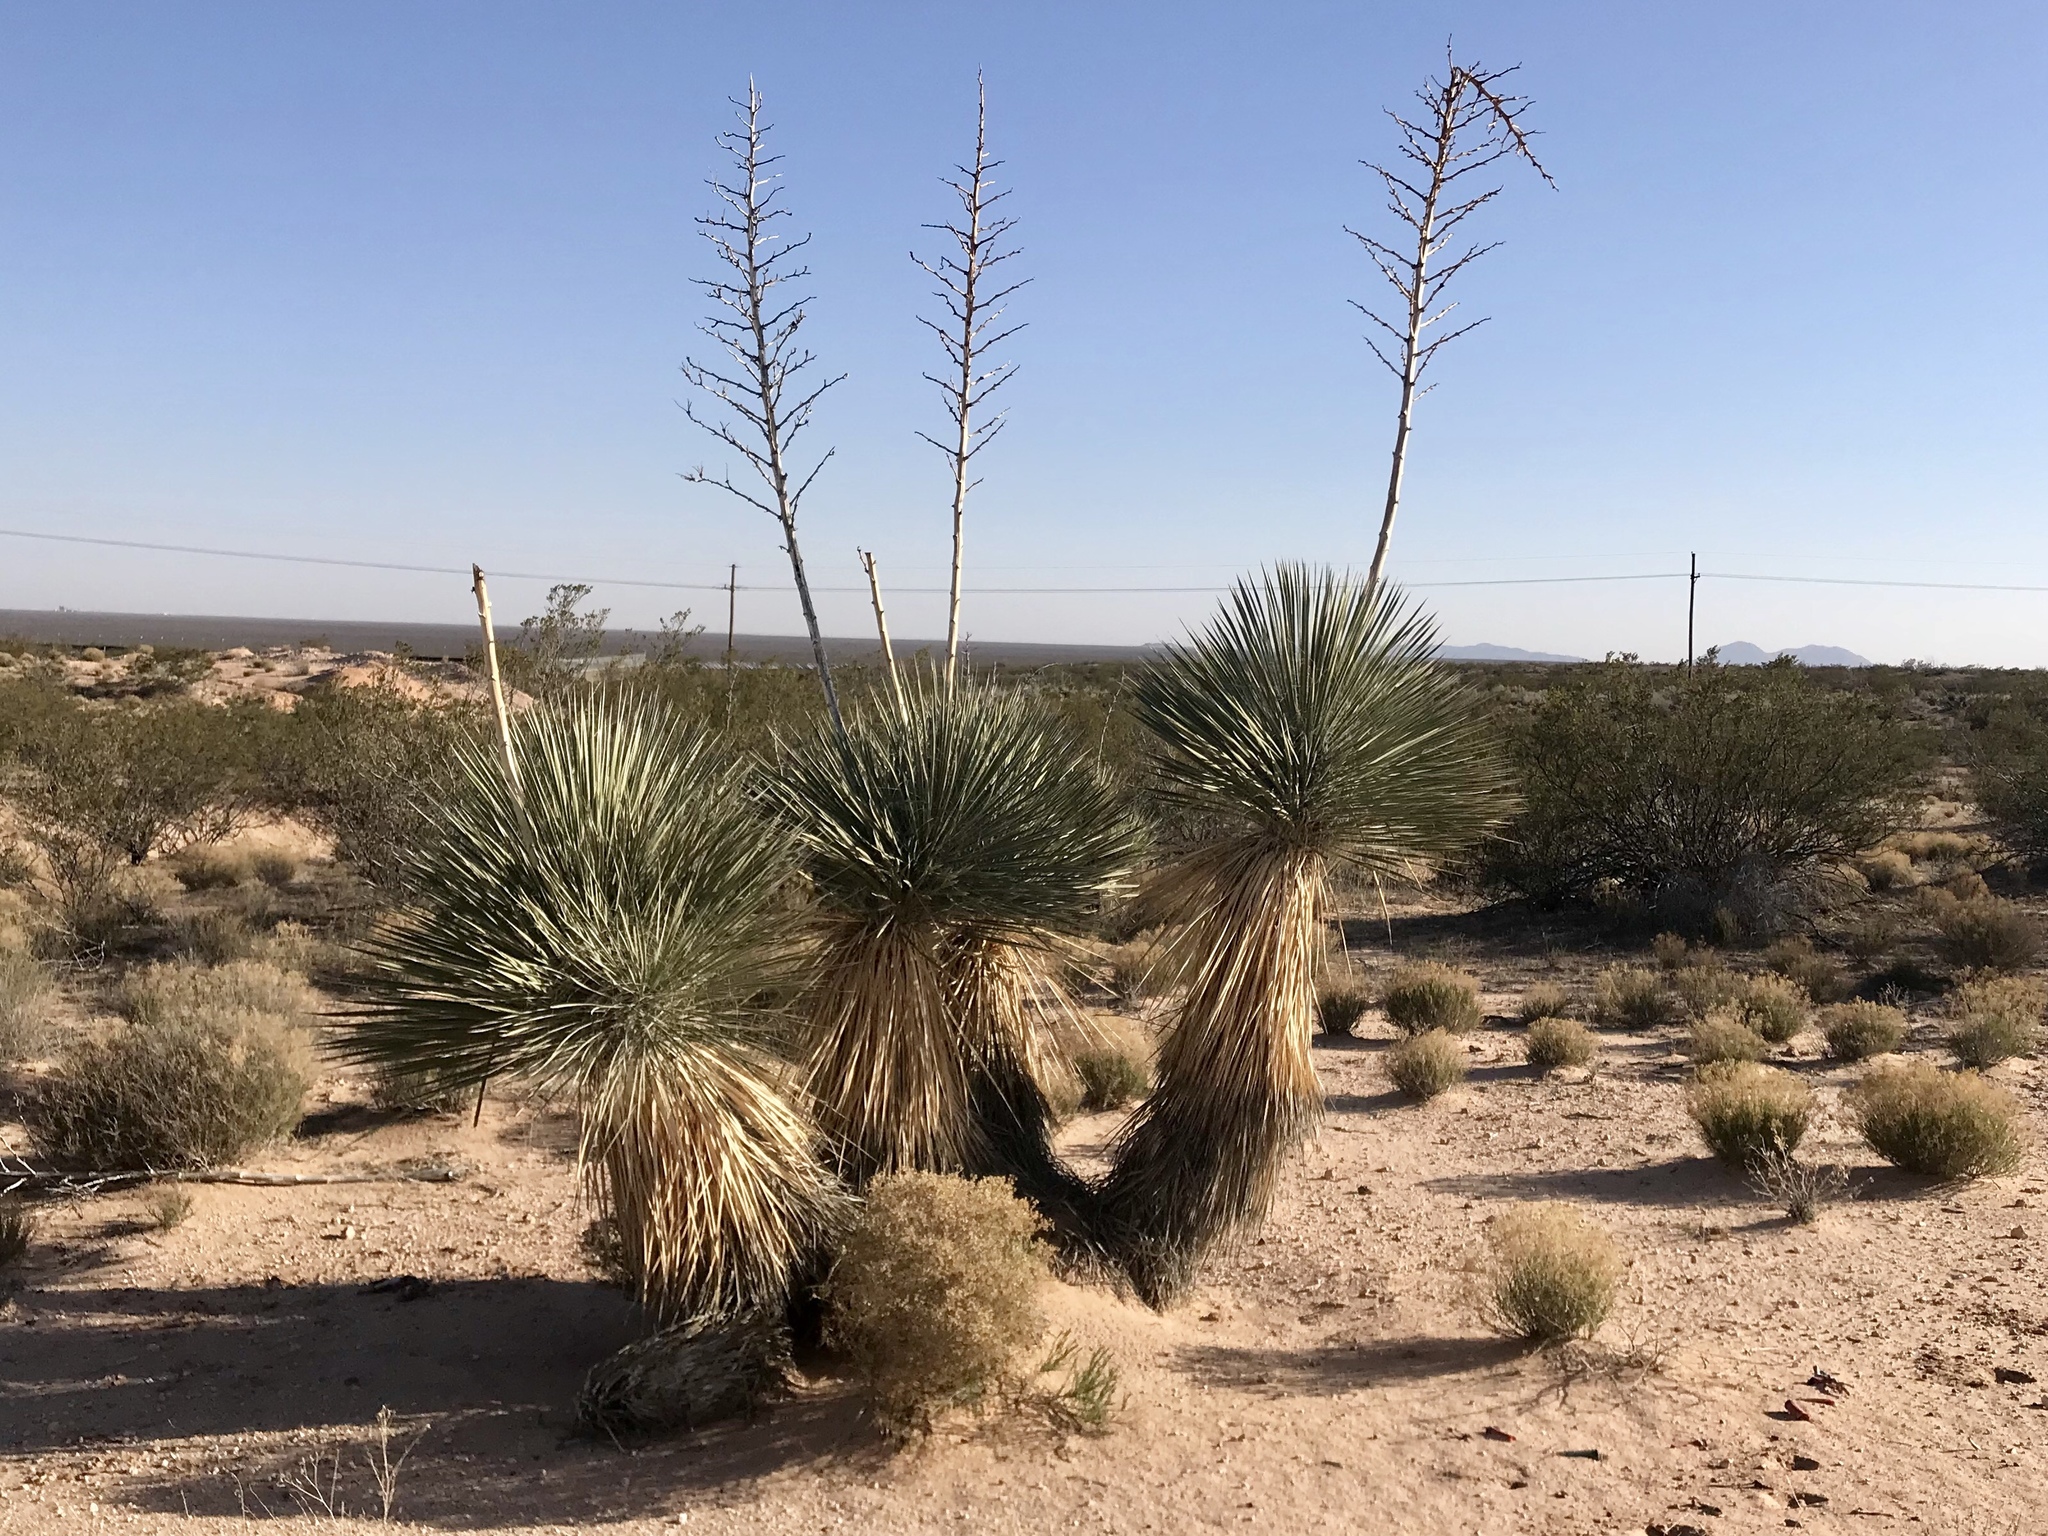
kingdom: Plantae
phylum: Tracheophyta
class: Liliopsida
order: Asparagales
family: Asparagaceae
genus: Yucca
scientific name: Yucca elata
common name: Palmella
